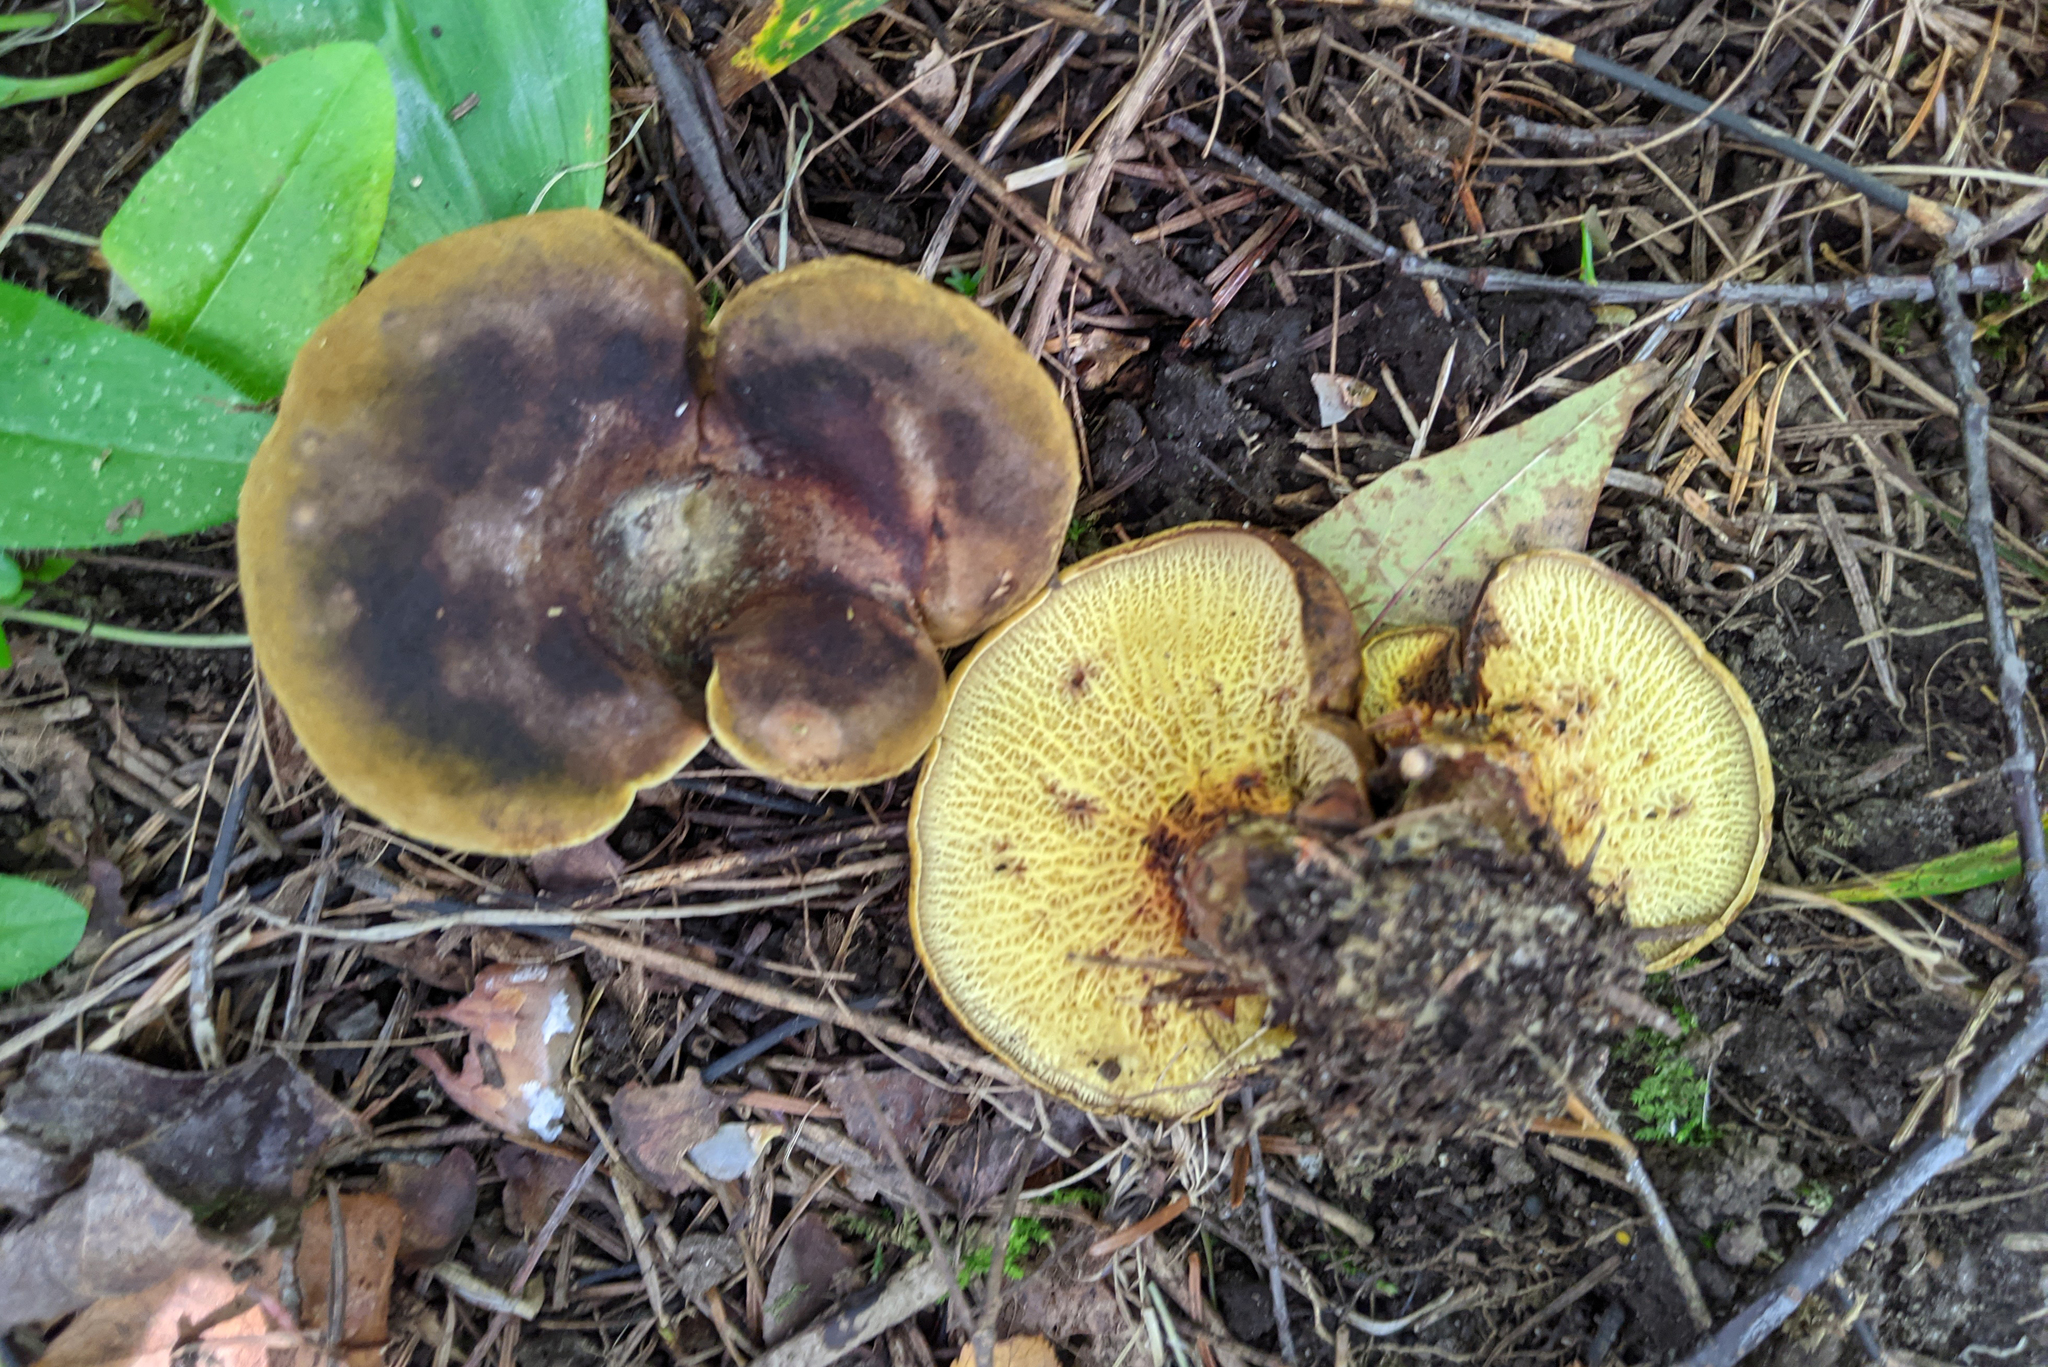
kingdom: Fungi
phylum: Basidiomycota
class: Agaricomycetes
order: Boletales
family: Boletinellaceae
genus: Boletinellus
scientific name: Boletinellus merulioides
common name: Ash tree bolete
